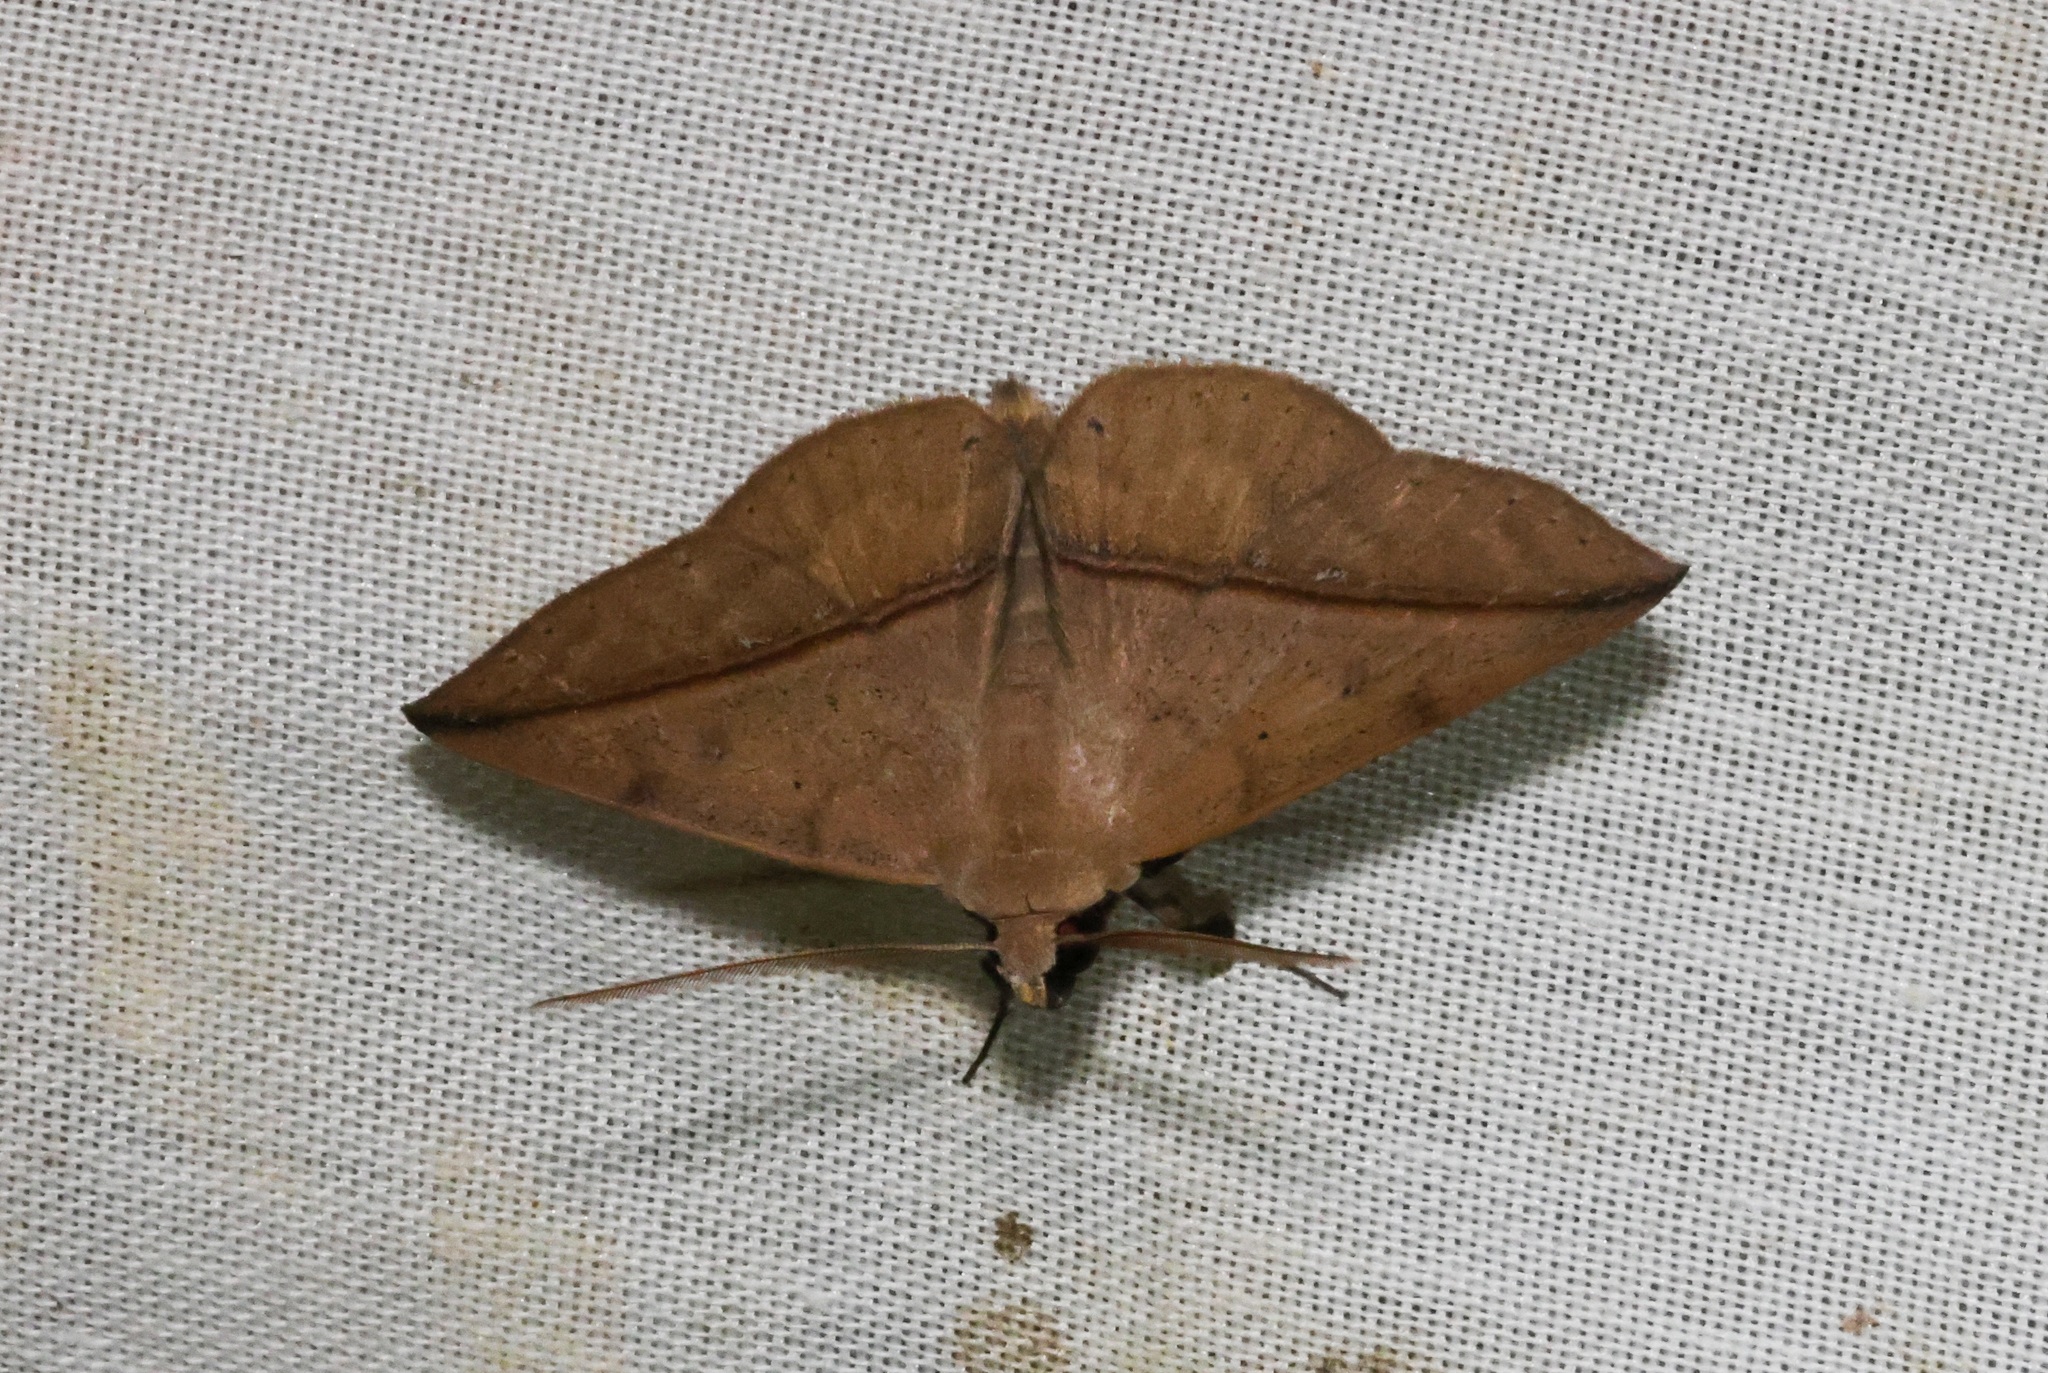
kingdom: Animalia
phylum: Arthropoda
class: Insecta
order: Lepidoptera
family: Erebidae
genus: Ugia
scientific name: Ugia purpurea
